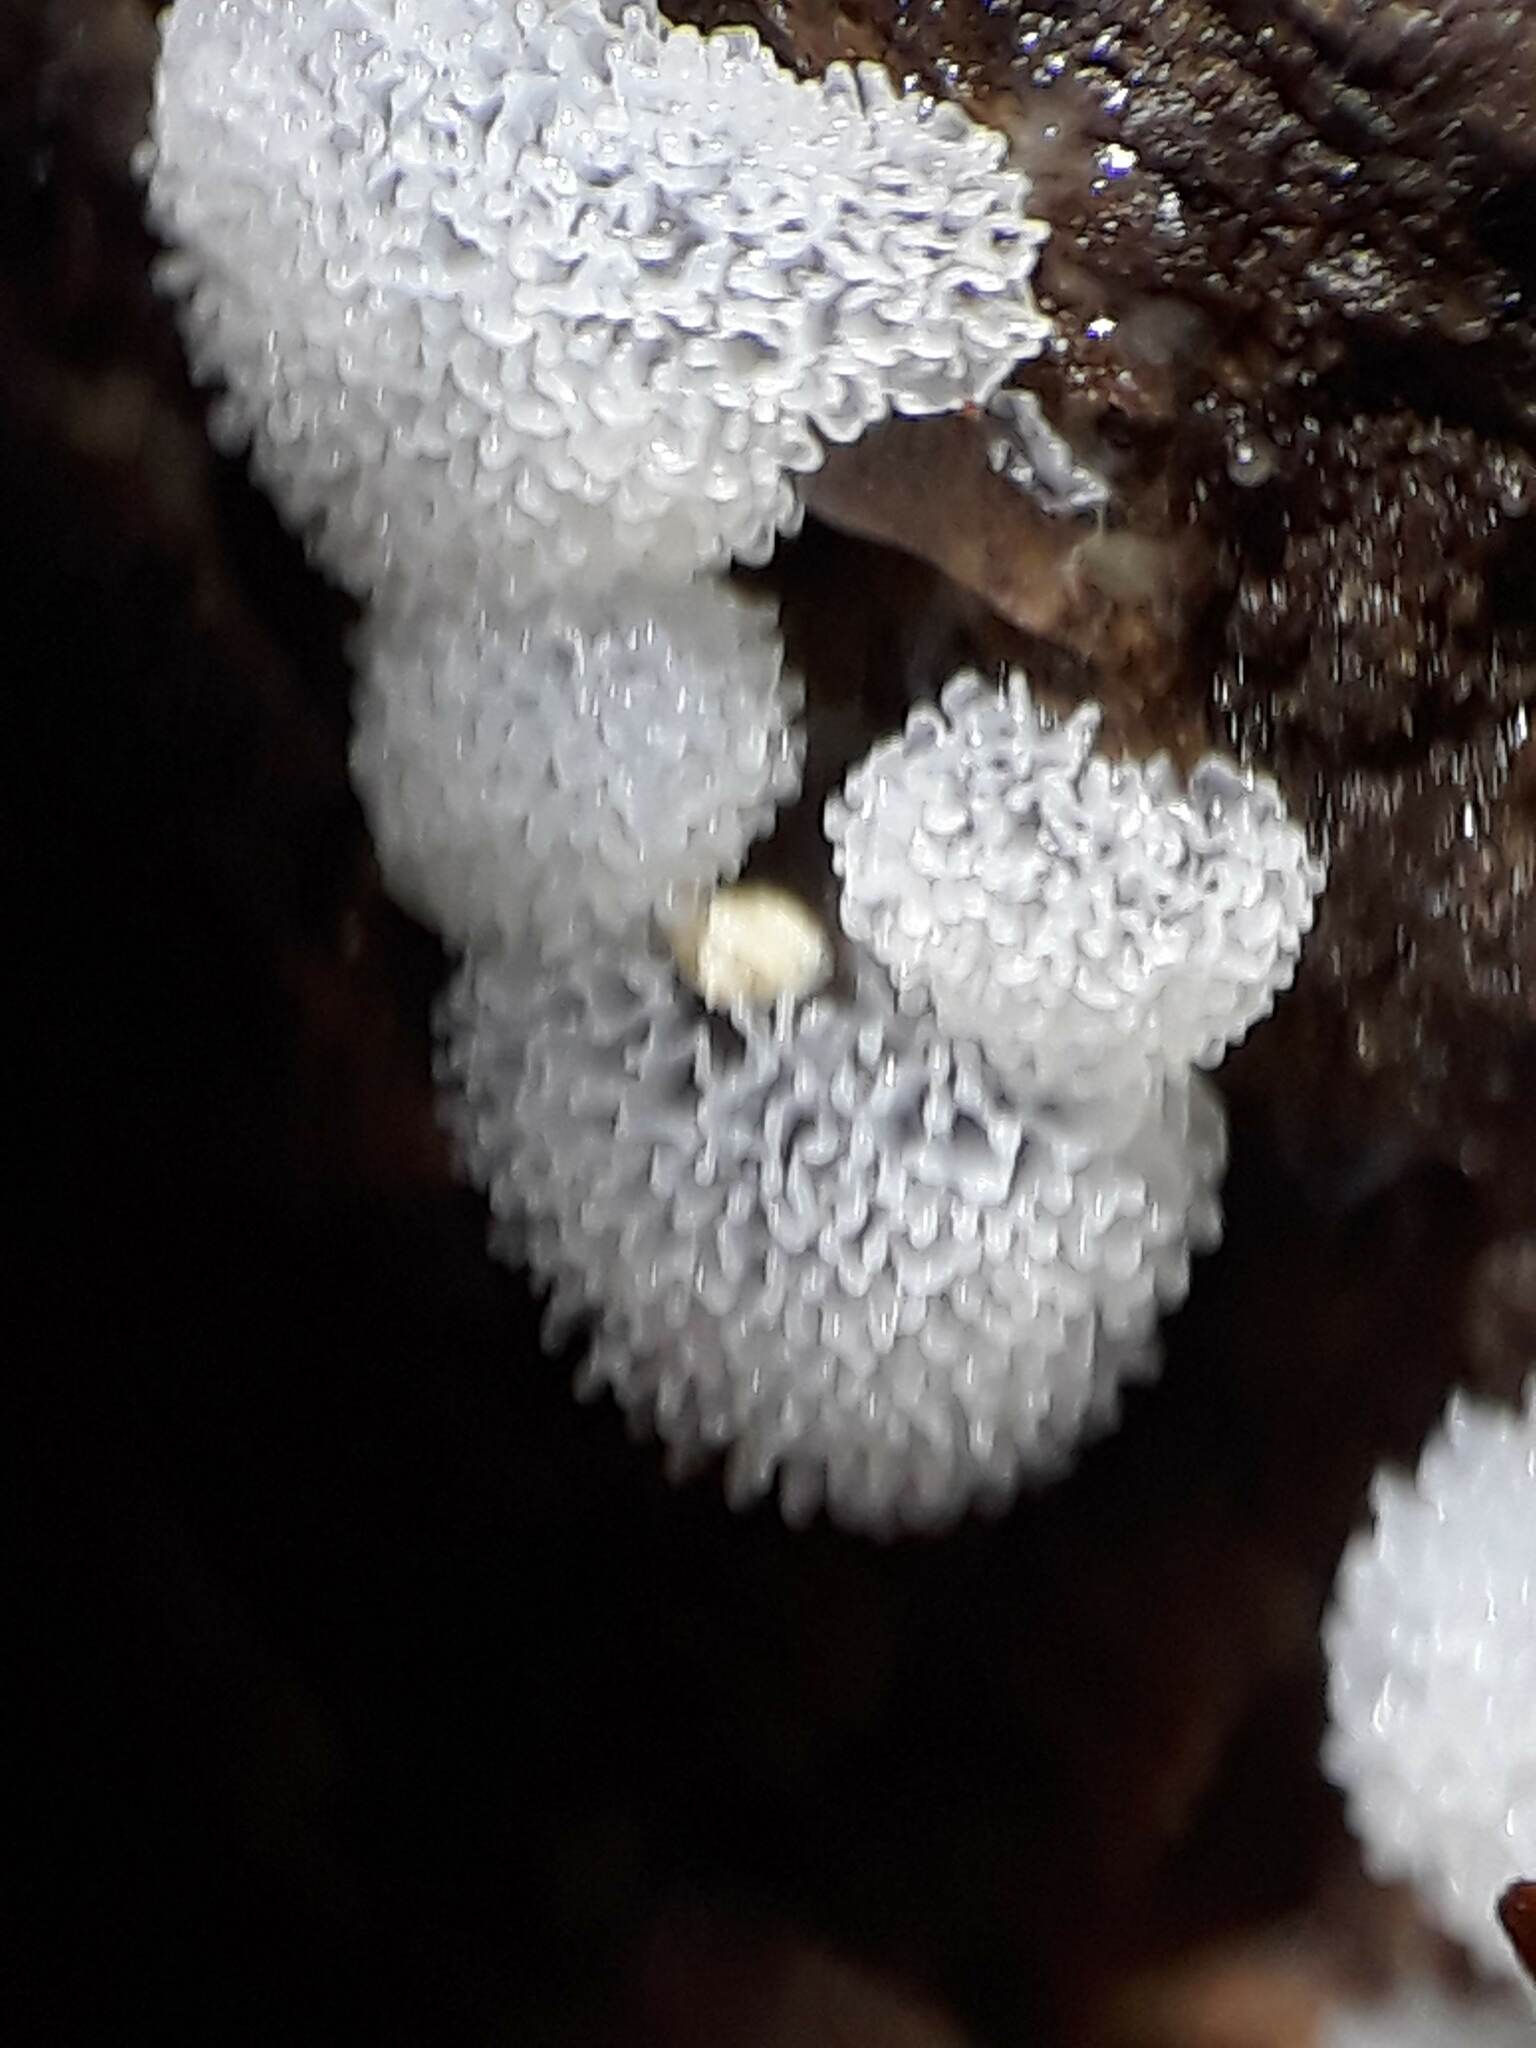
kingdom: Protozoa
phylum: Mycetozoa
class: Protosteliomycetes
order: Ceratiomyxales
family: Ceratiomyxaceae
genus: Ceratiomyxa
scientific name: Ceratiomyxa fruticulosa
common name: Honeycomb coral slime mold
